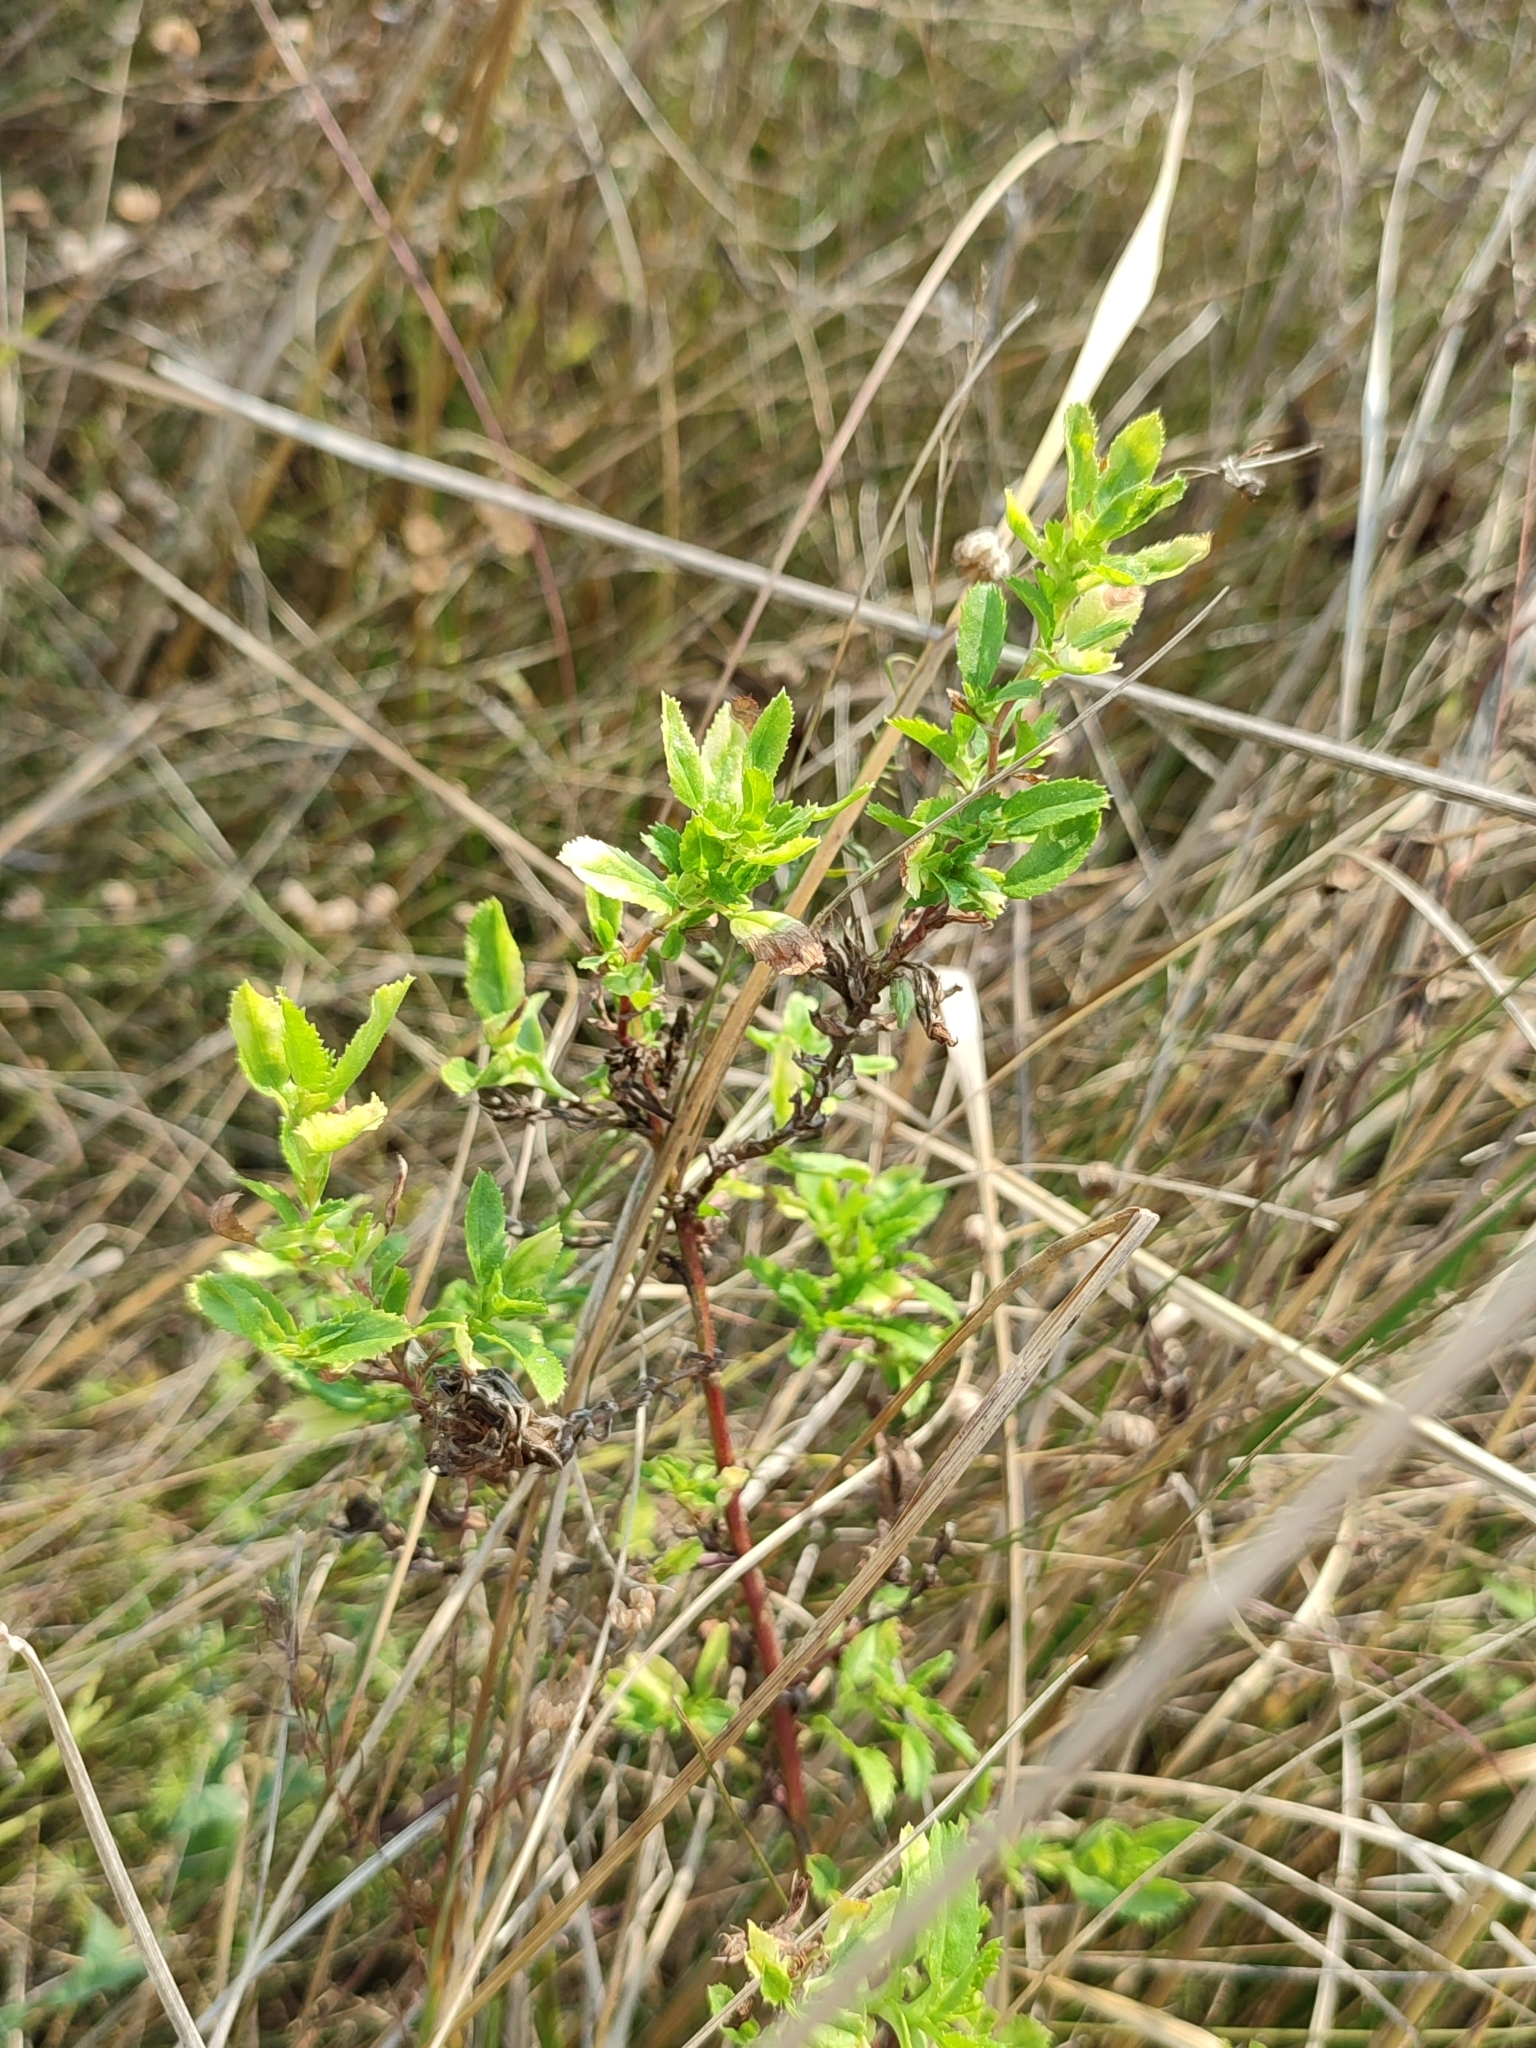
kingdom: Plantae
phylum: Tracheophyta
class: Magnoliopsida
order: Fabales
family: Fabaceae
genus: Ononis
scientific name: Ononis arvensis
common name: Field restharrow
